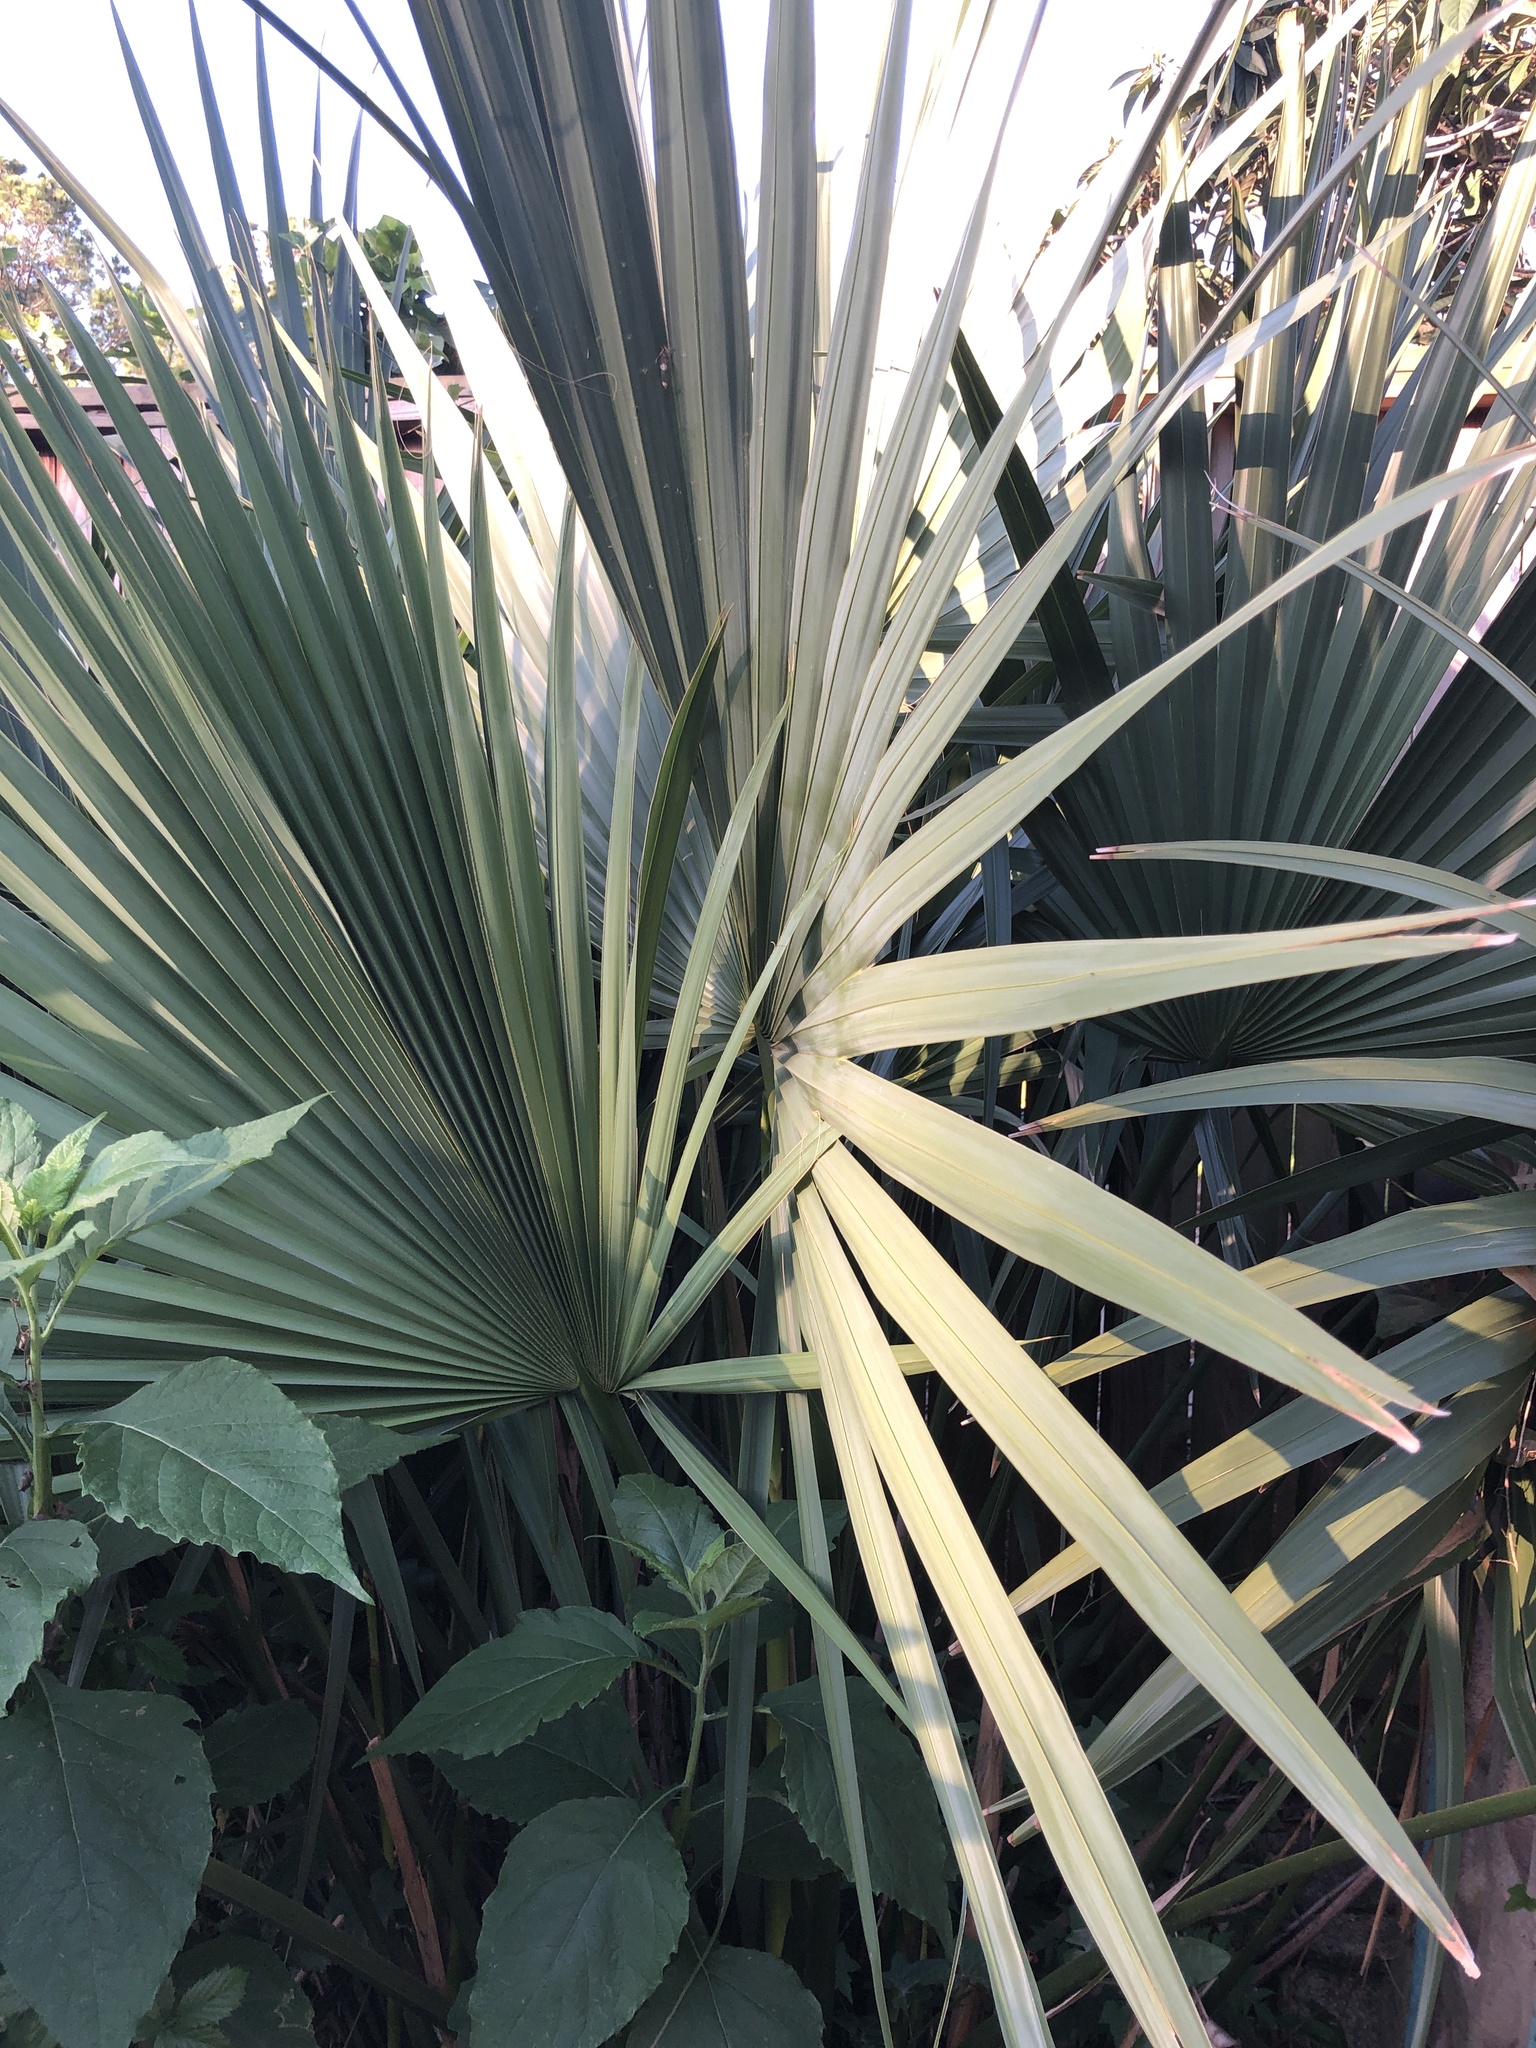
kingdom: Plantae
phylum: Tracheophyta
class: Liliopsida
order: Arecales
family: Arecaceae
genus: Sabal
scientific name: Sabal minor
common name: Dwarf palmetto
